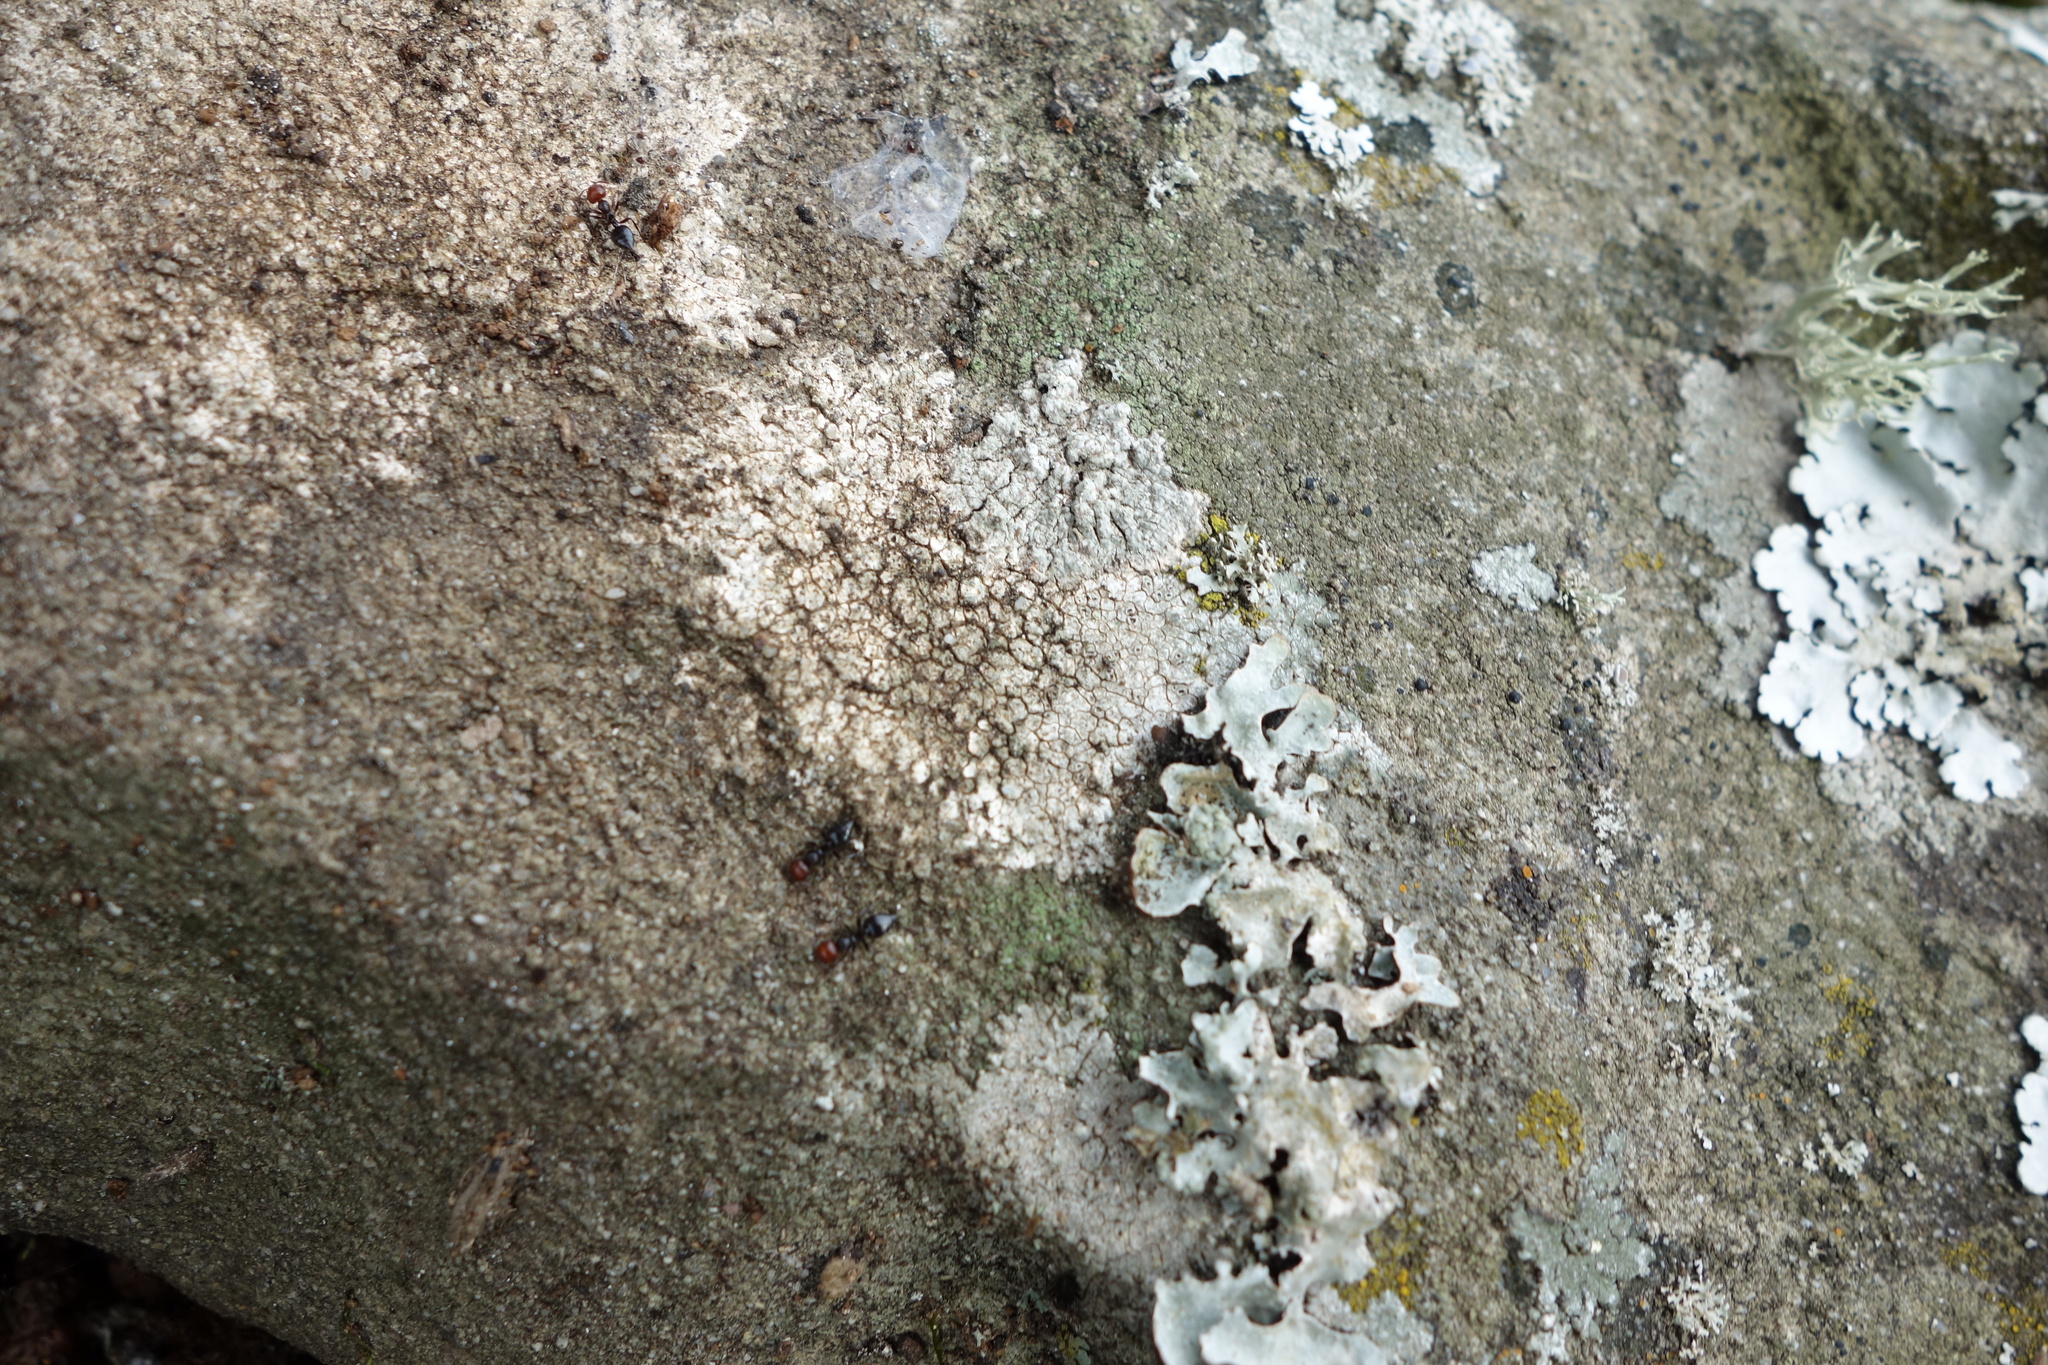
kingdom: Animalia
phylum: Arthropoda
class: Insecta
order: Hymenoptera
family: Formicidae
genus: Crematogaster
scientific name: Crematogaster scutellaris
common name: Fourmi du liège
